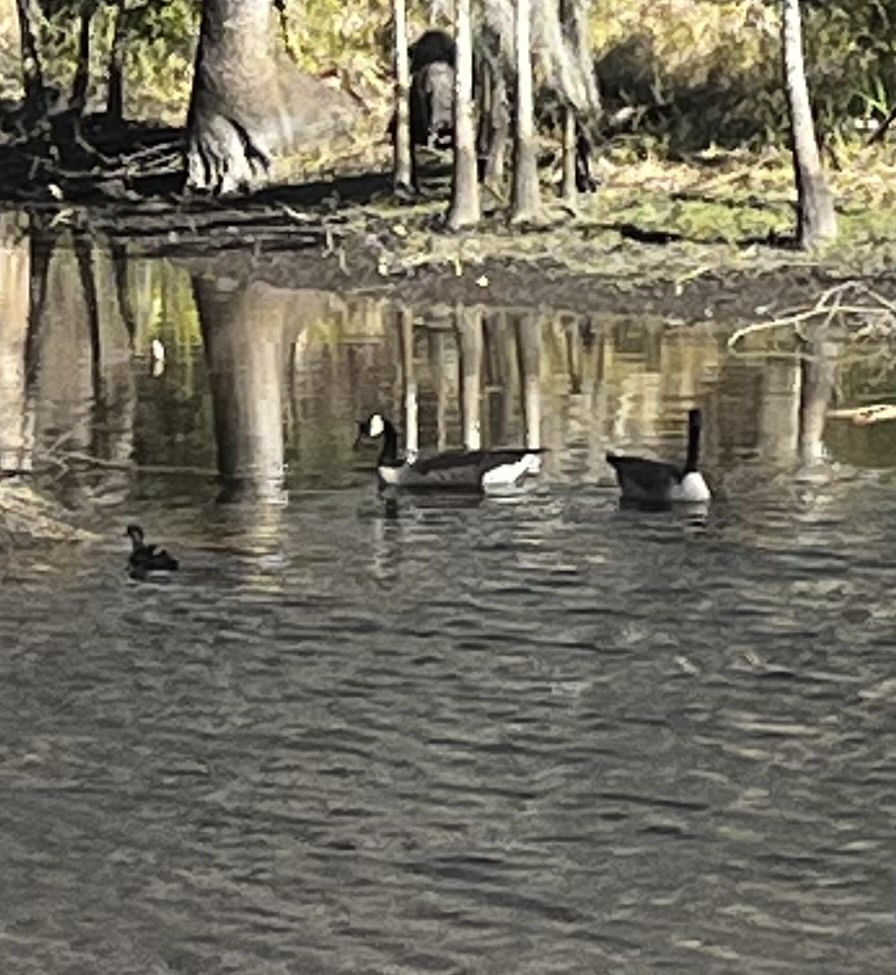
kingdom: Animalia
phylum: Chordata
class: Aves
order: Anseriformes
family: Anatidae
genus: Branta
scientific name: Branta canadensis
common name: Canada goose
